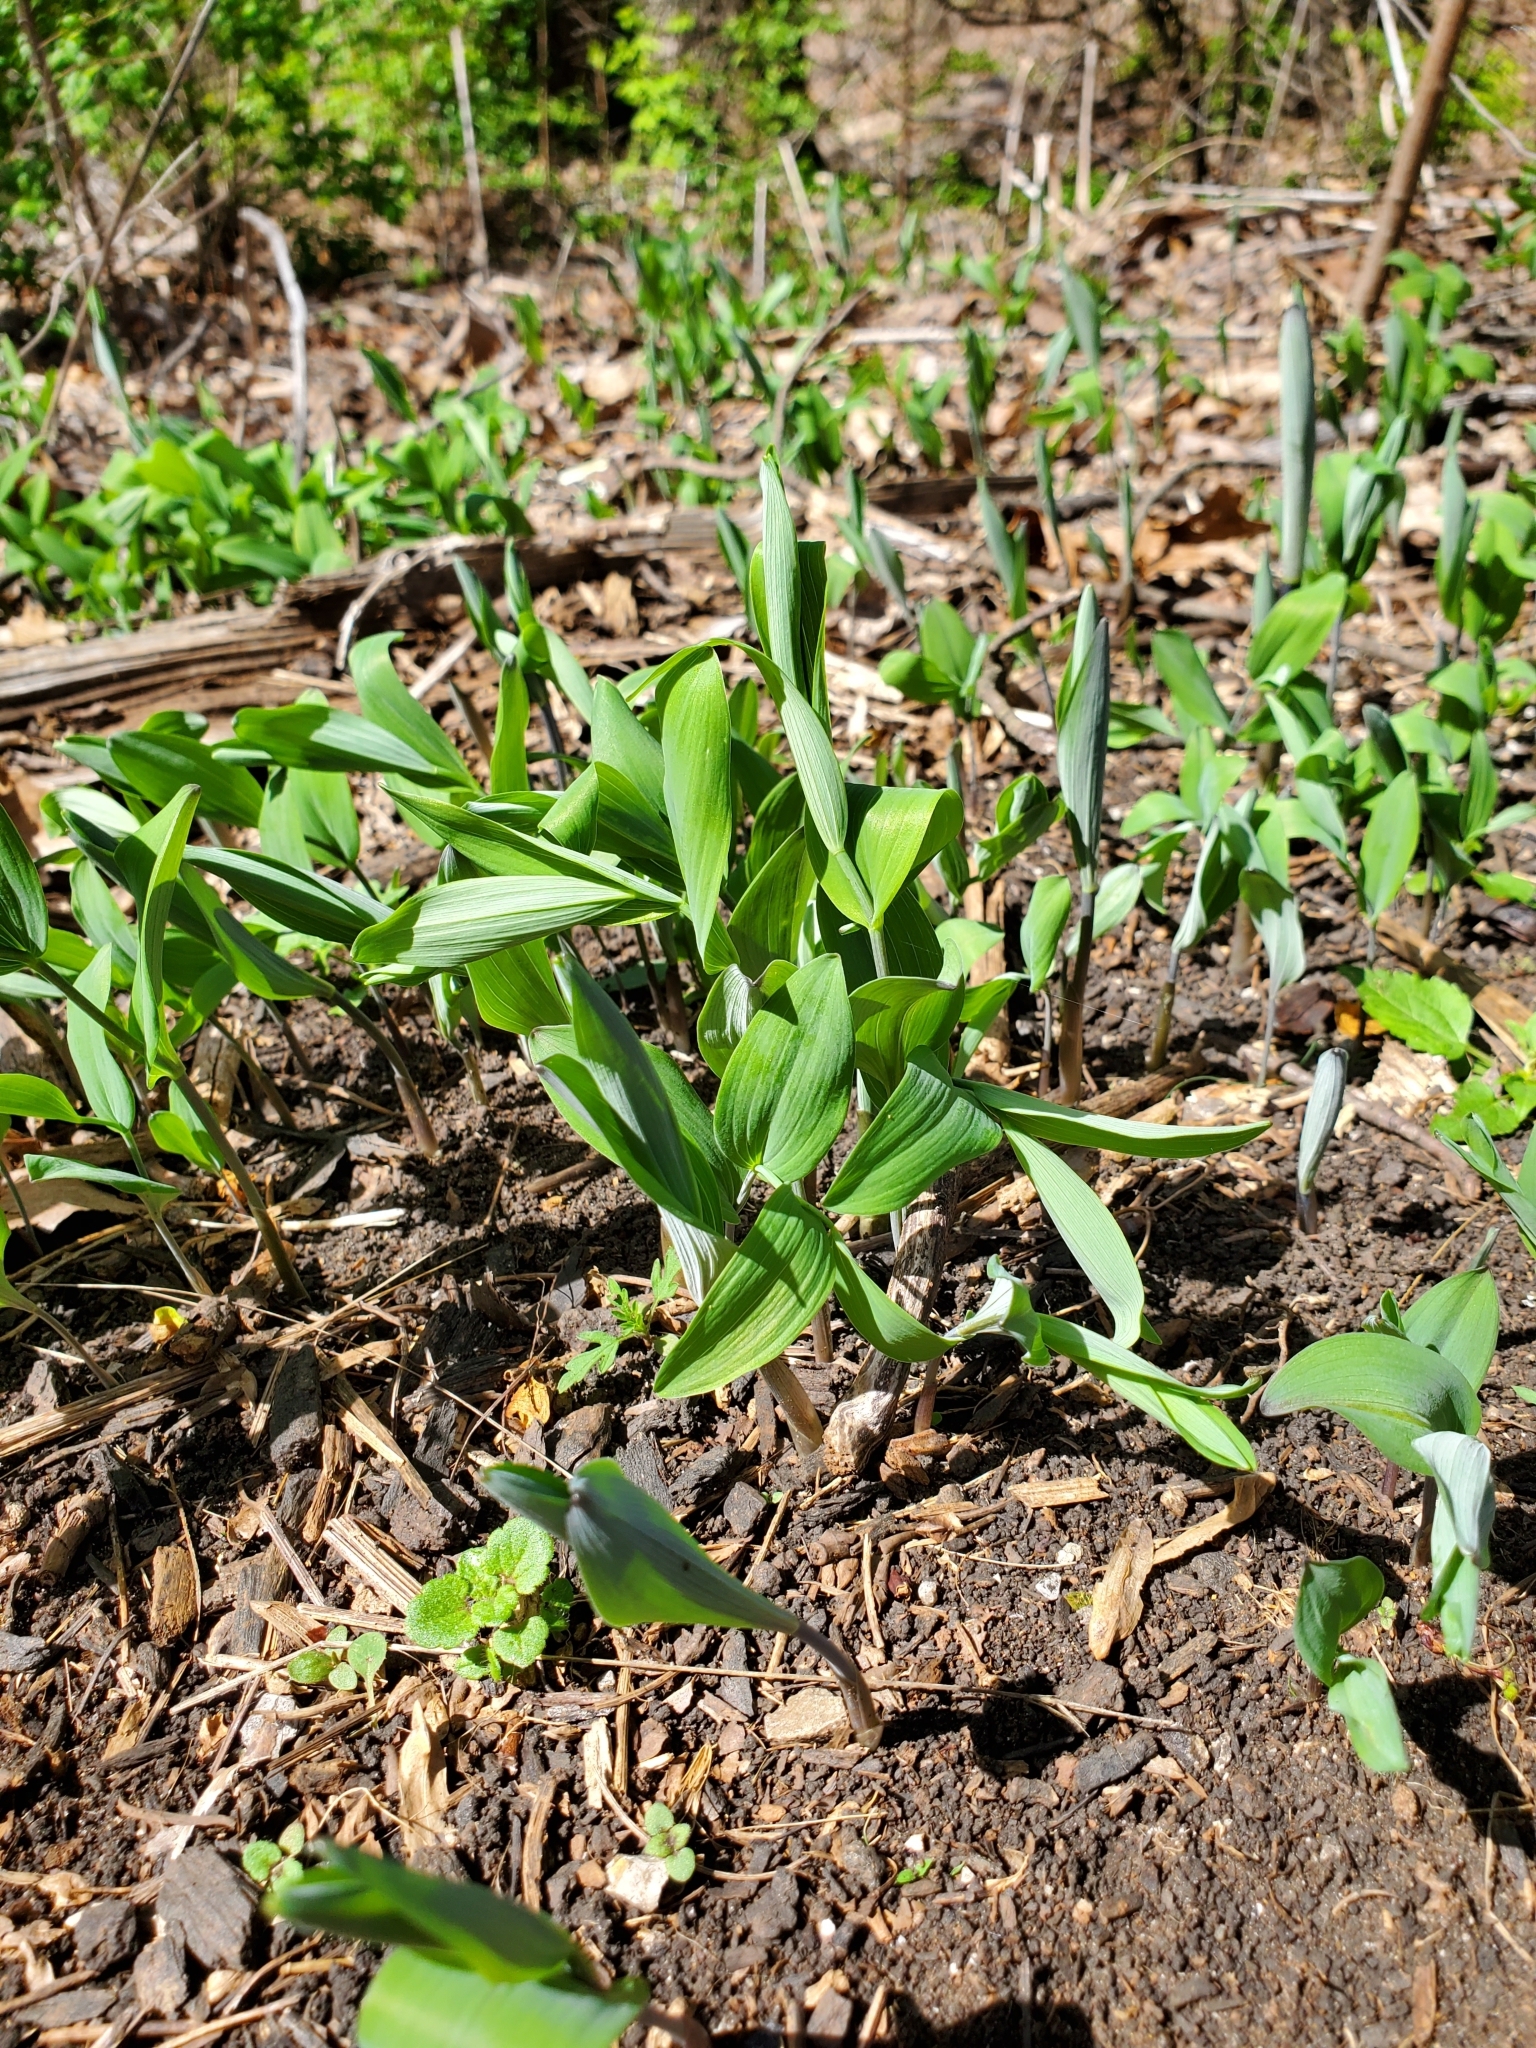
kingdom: Plantae
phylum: Tracheophyta
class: Liliopsida
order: Asparagales
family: Asparagaceae
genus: Polygonatum
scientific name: Polygonatum biflorum
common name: American solomon's-seal
